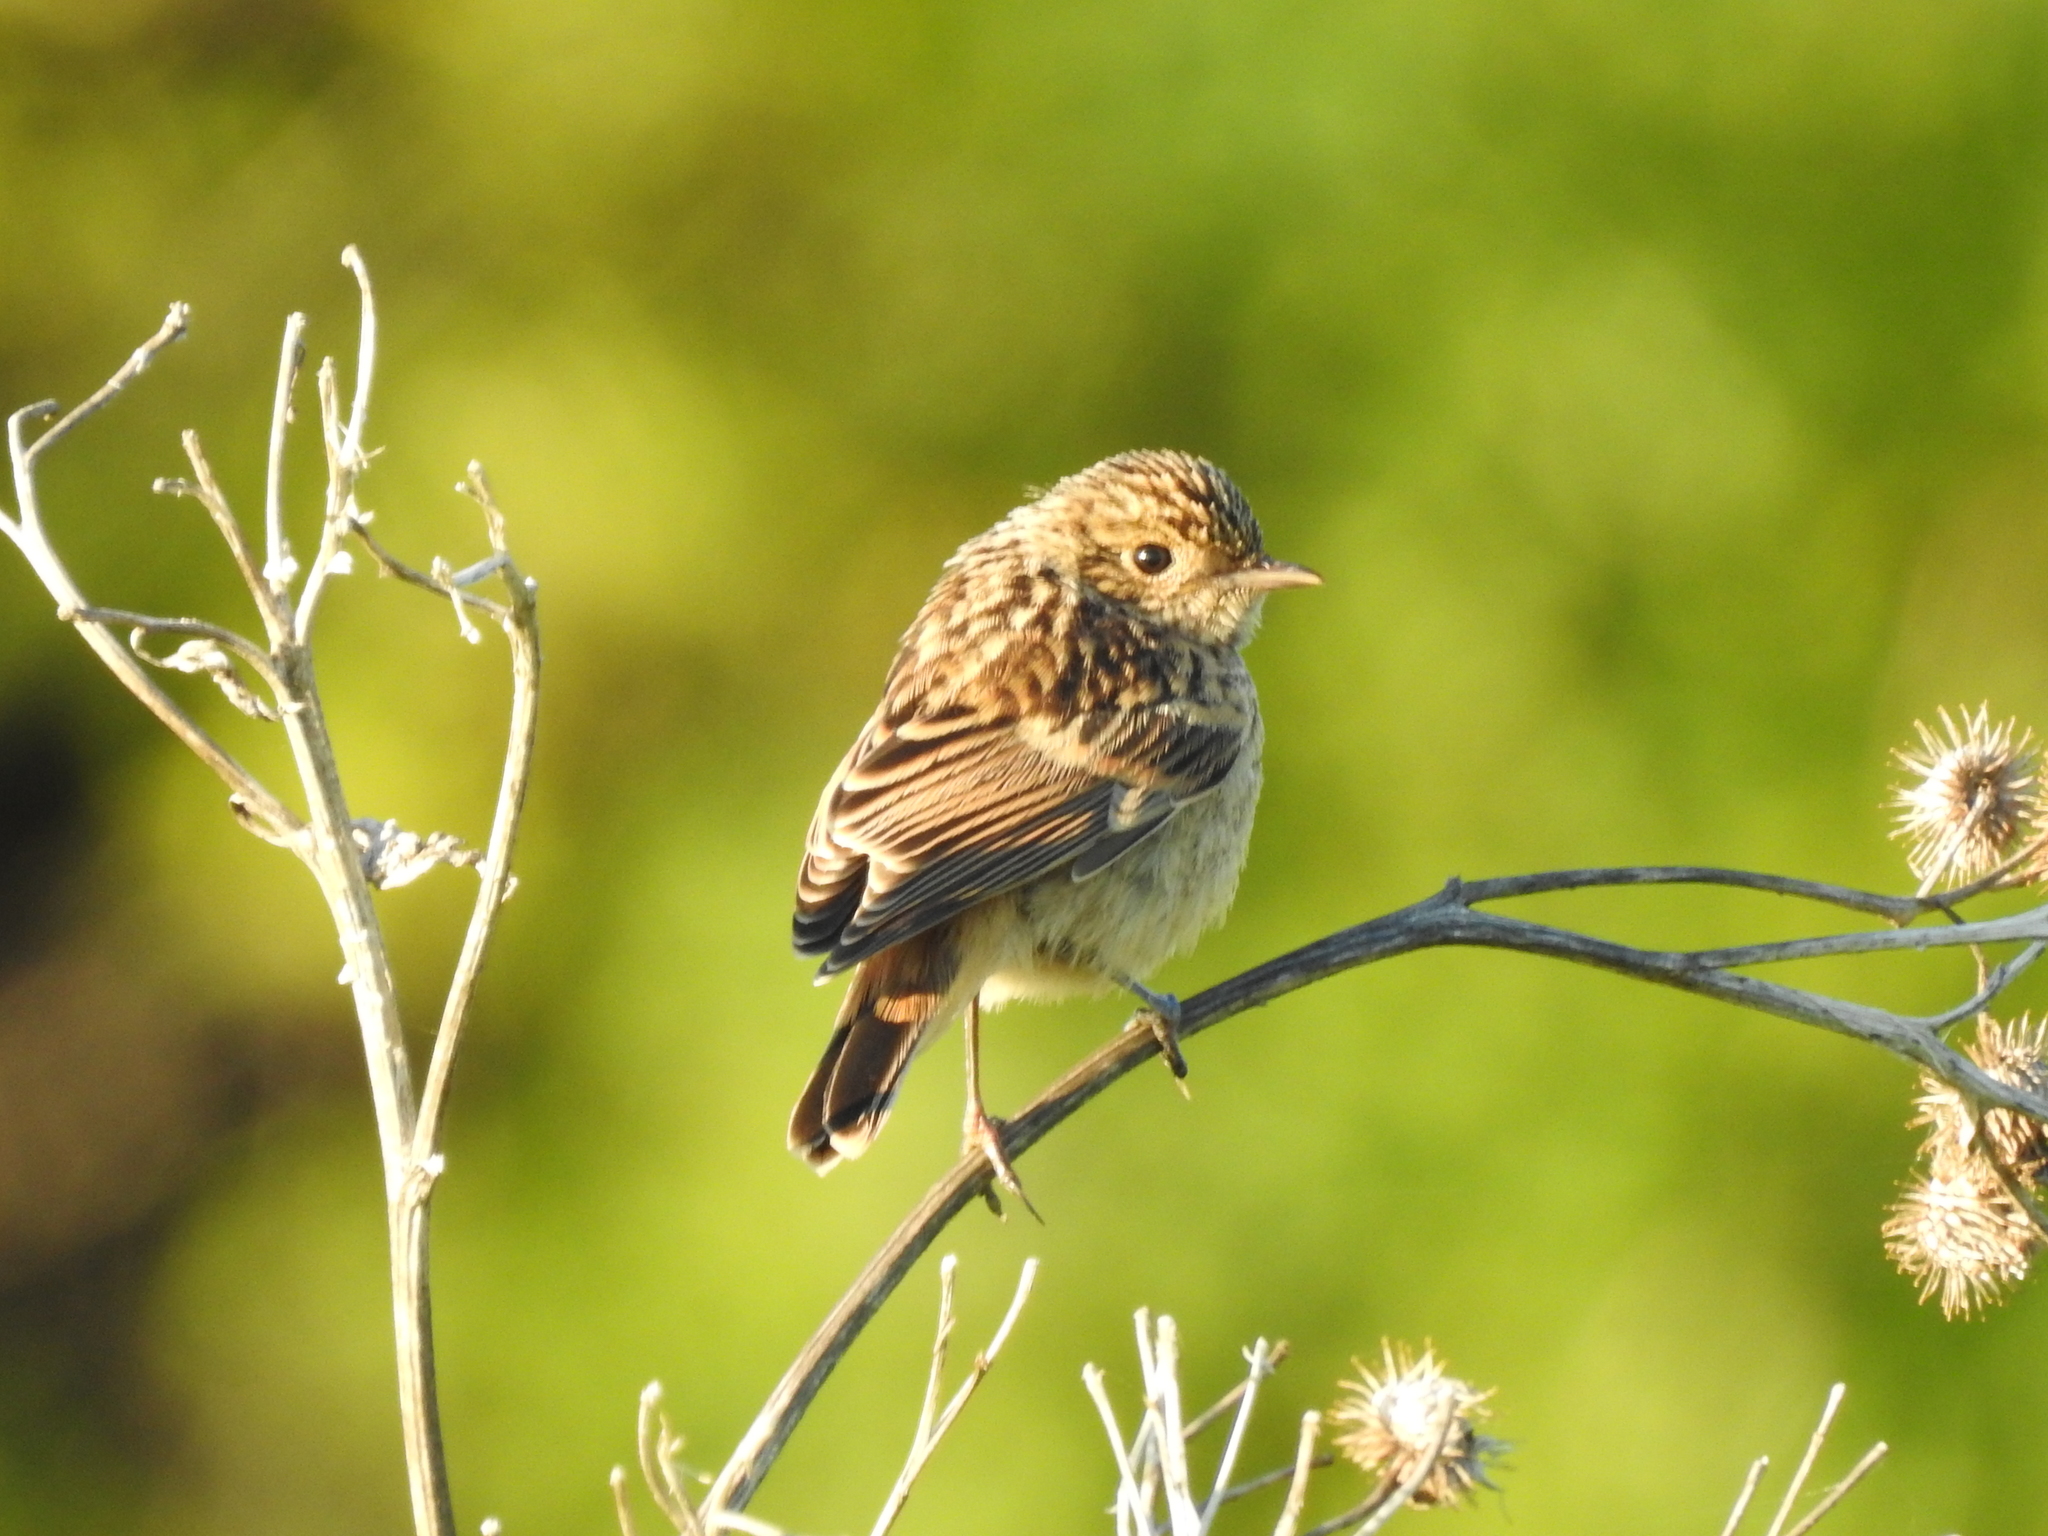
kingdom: Animalia
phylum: Chordata
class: Aves
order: Passeriformes
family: Muscicapidae
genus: Saxicola
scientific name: Saxicola maurus
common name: Siberian stonechat
